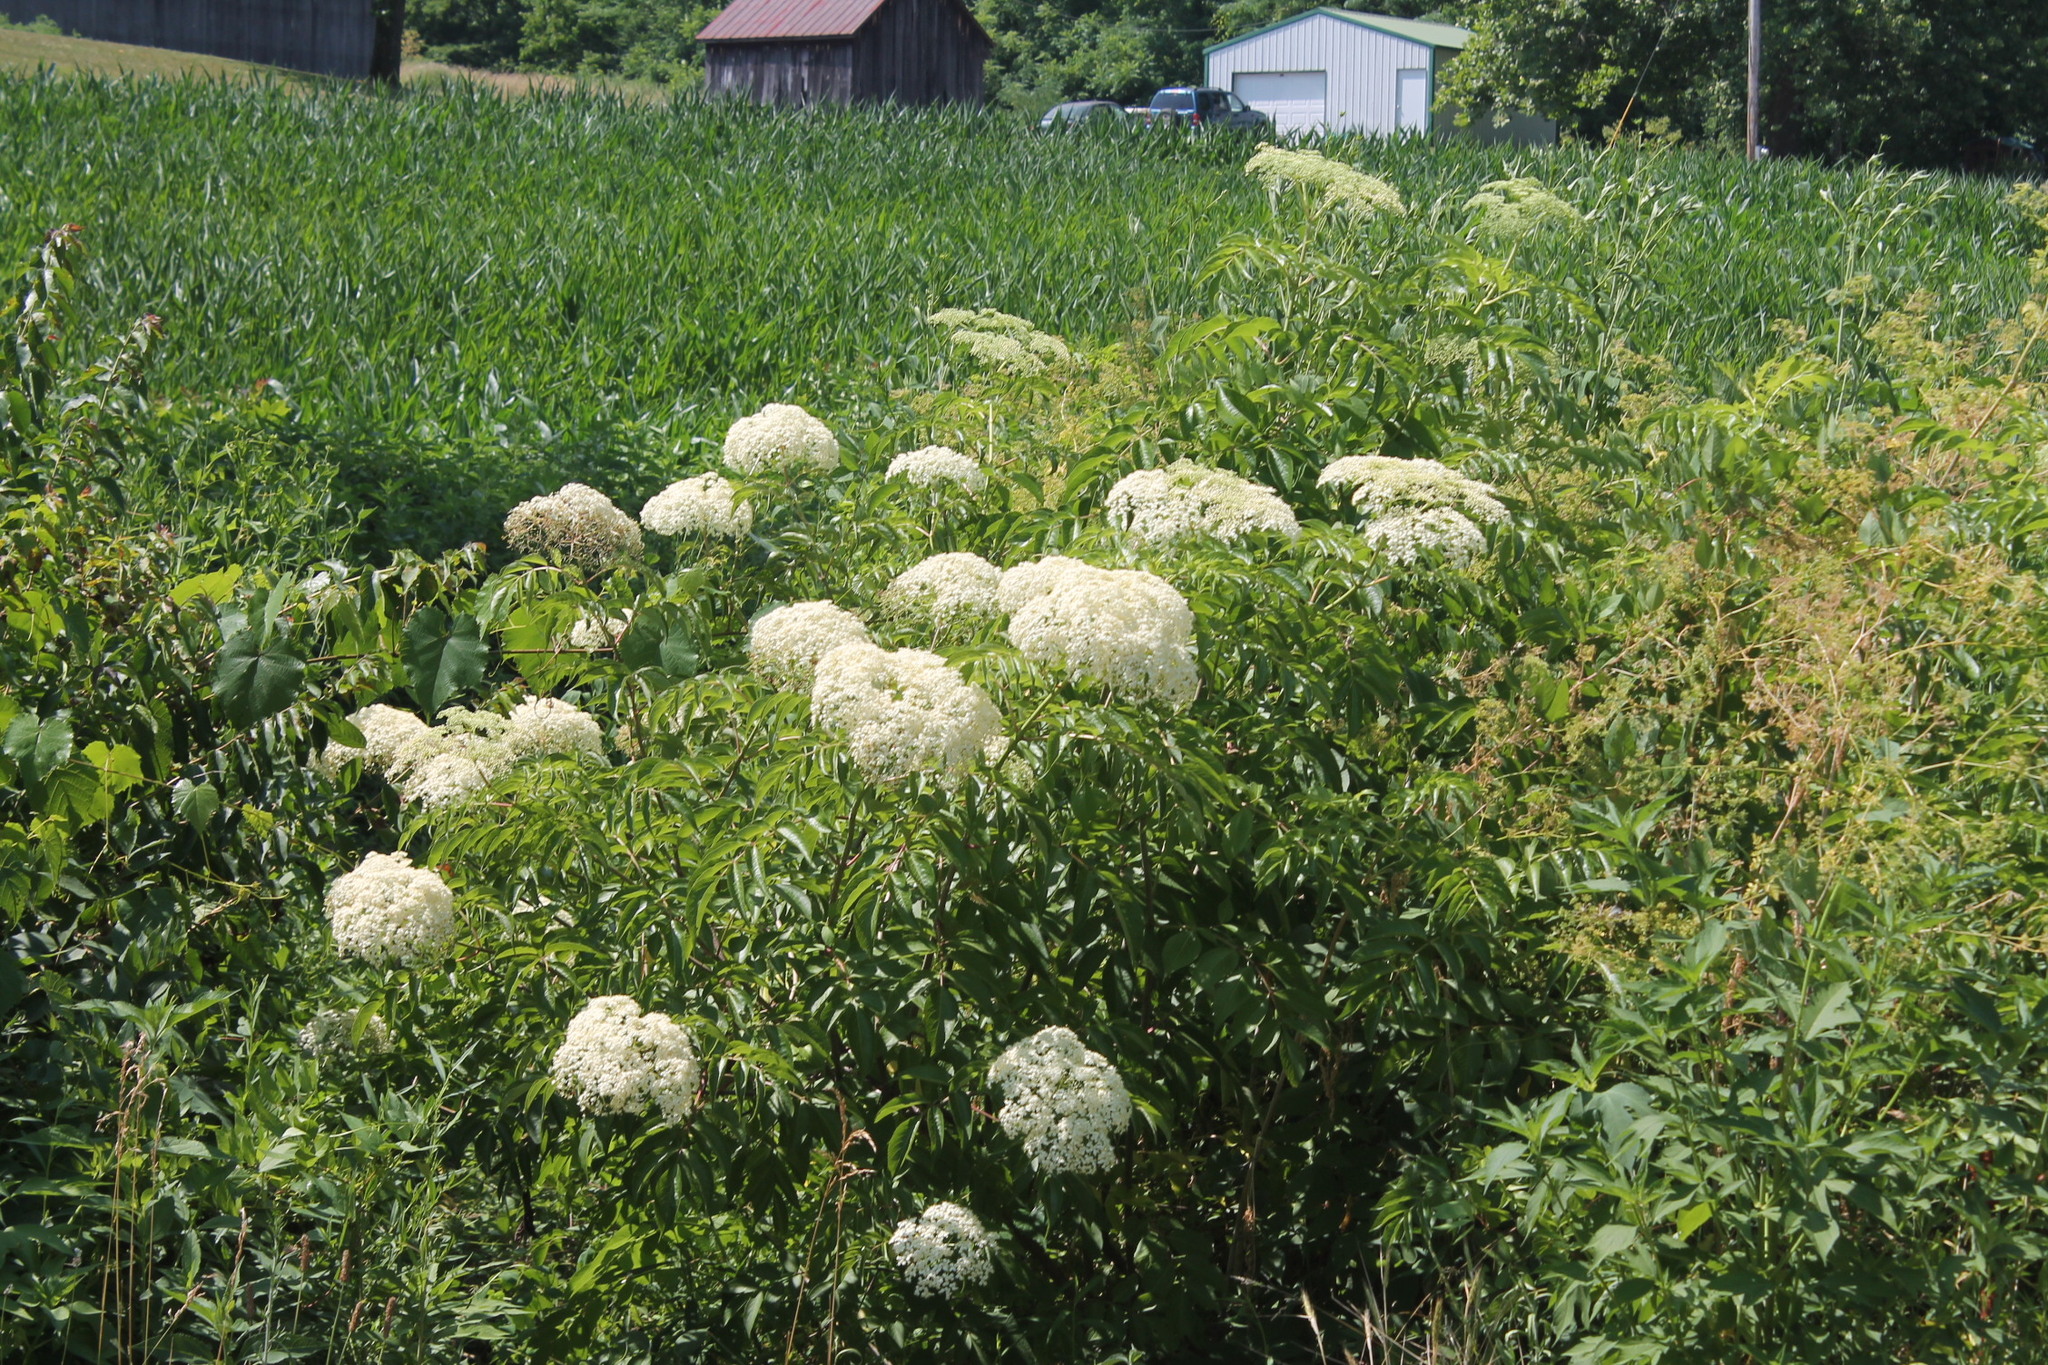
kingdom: Plantae
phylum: Tracheophyta
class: Magnoliopsida
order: Dipsacales
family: Viburnaceae
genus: Sambucus
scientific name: Sambucus canadensis
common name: American elder
